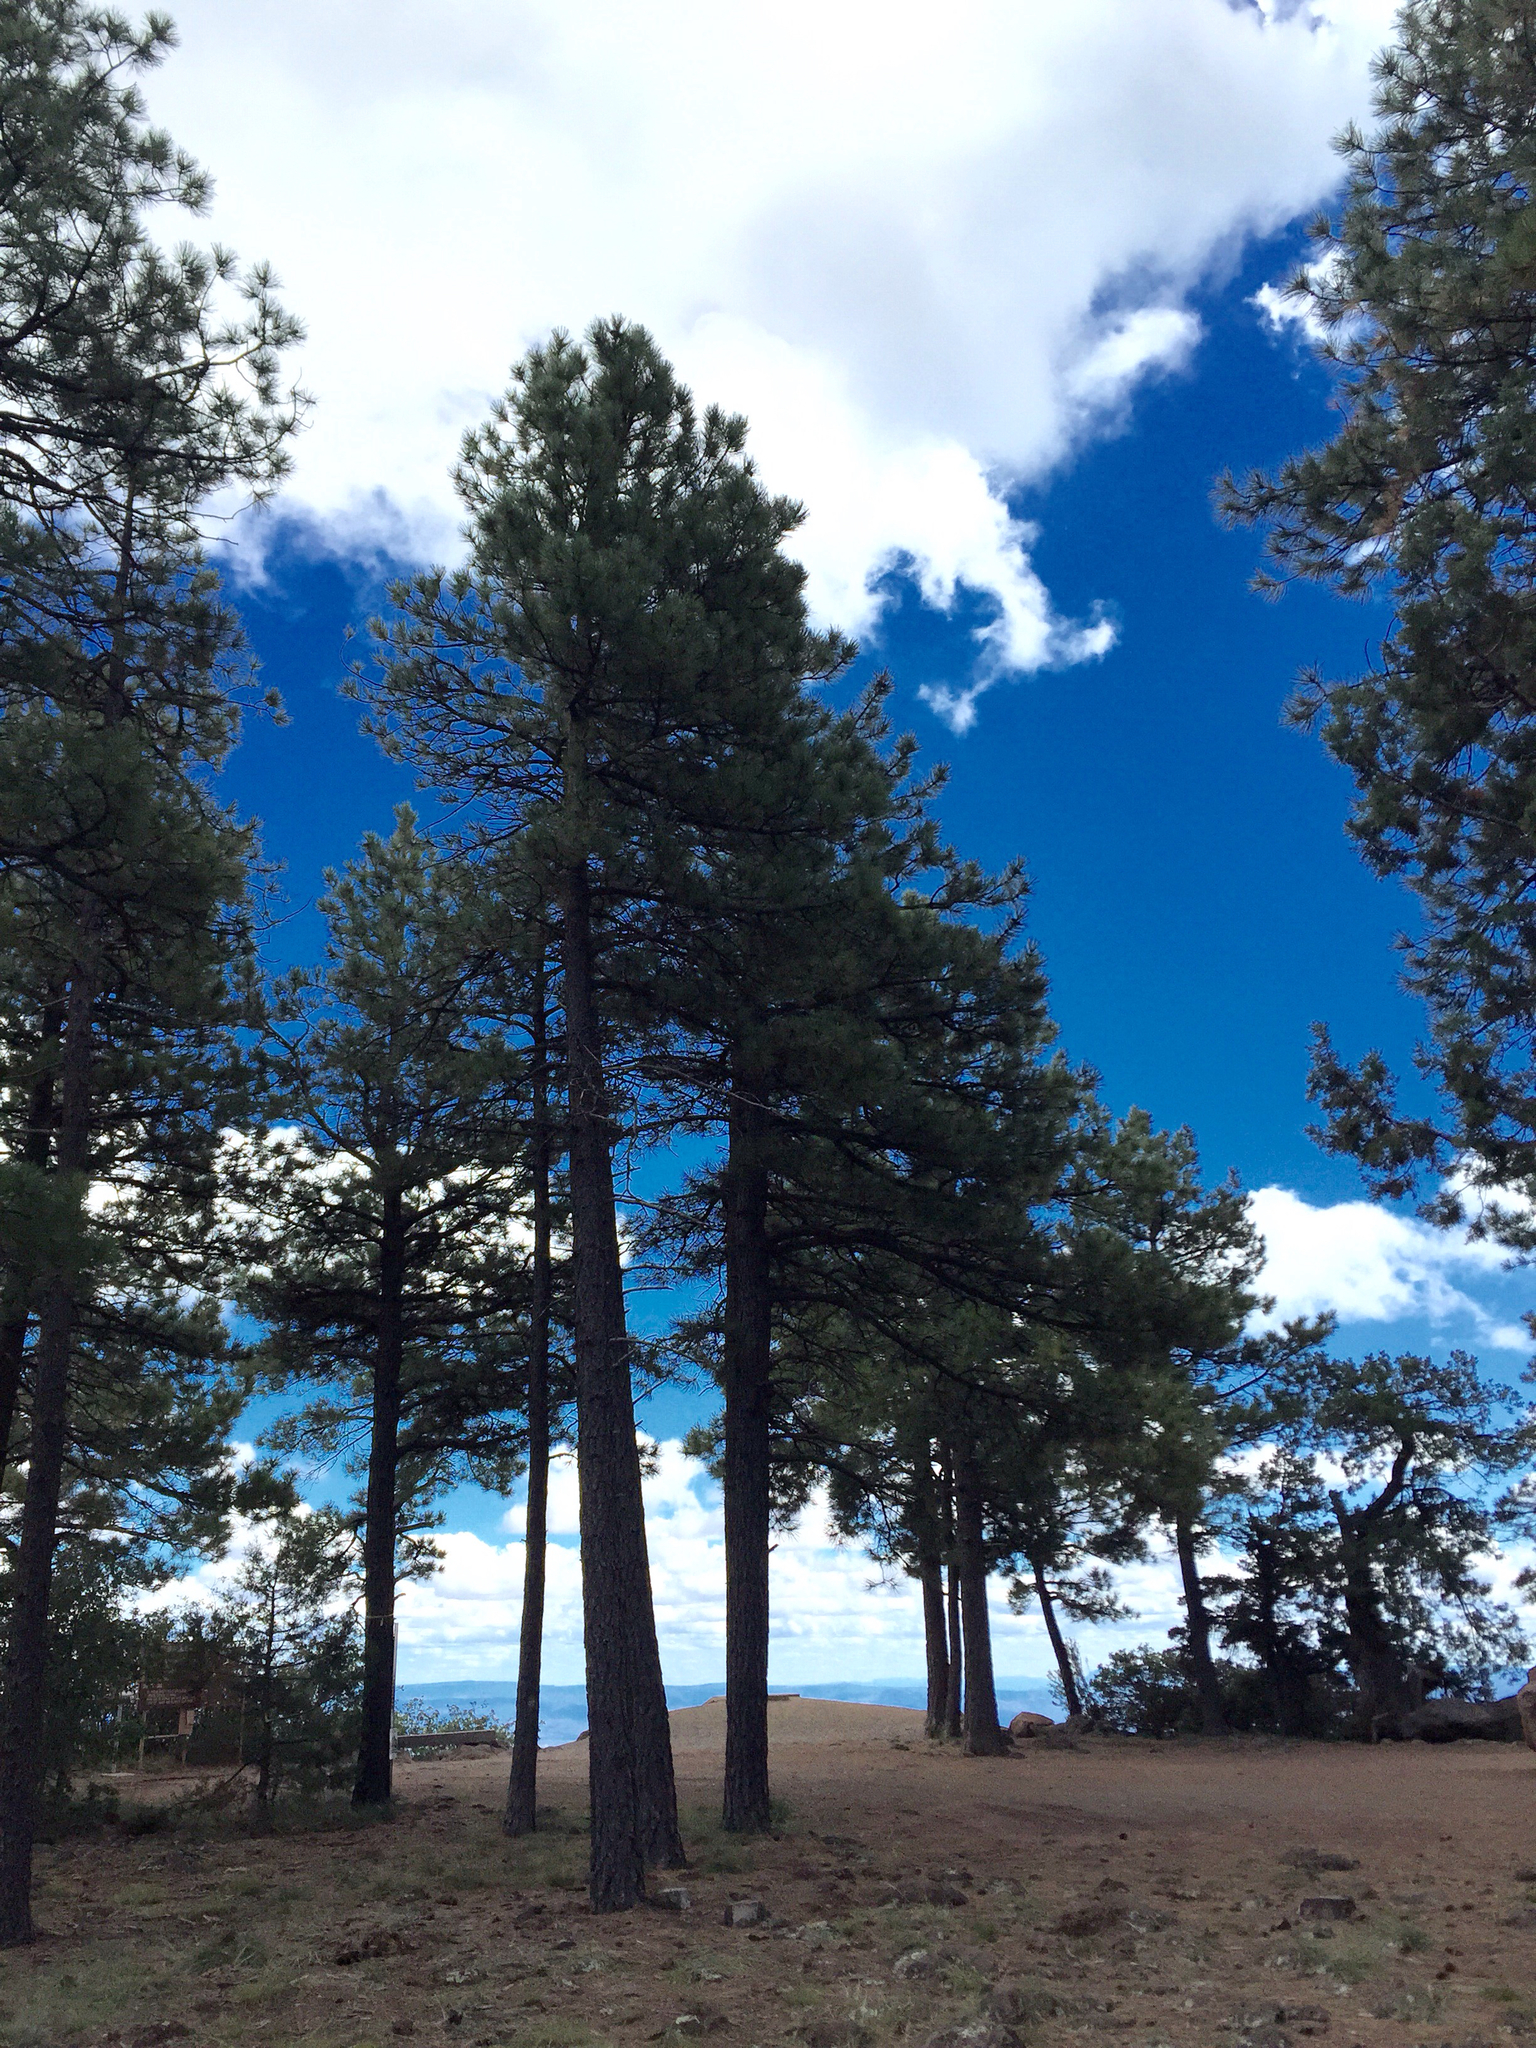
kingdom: Plantae
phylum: Tracheophyta
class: Pinopsida
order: Pinales
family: Pinaceae
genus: Pinus
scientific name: Pinus ponderosa
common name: Western yellow-pine
